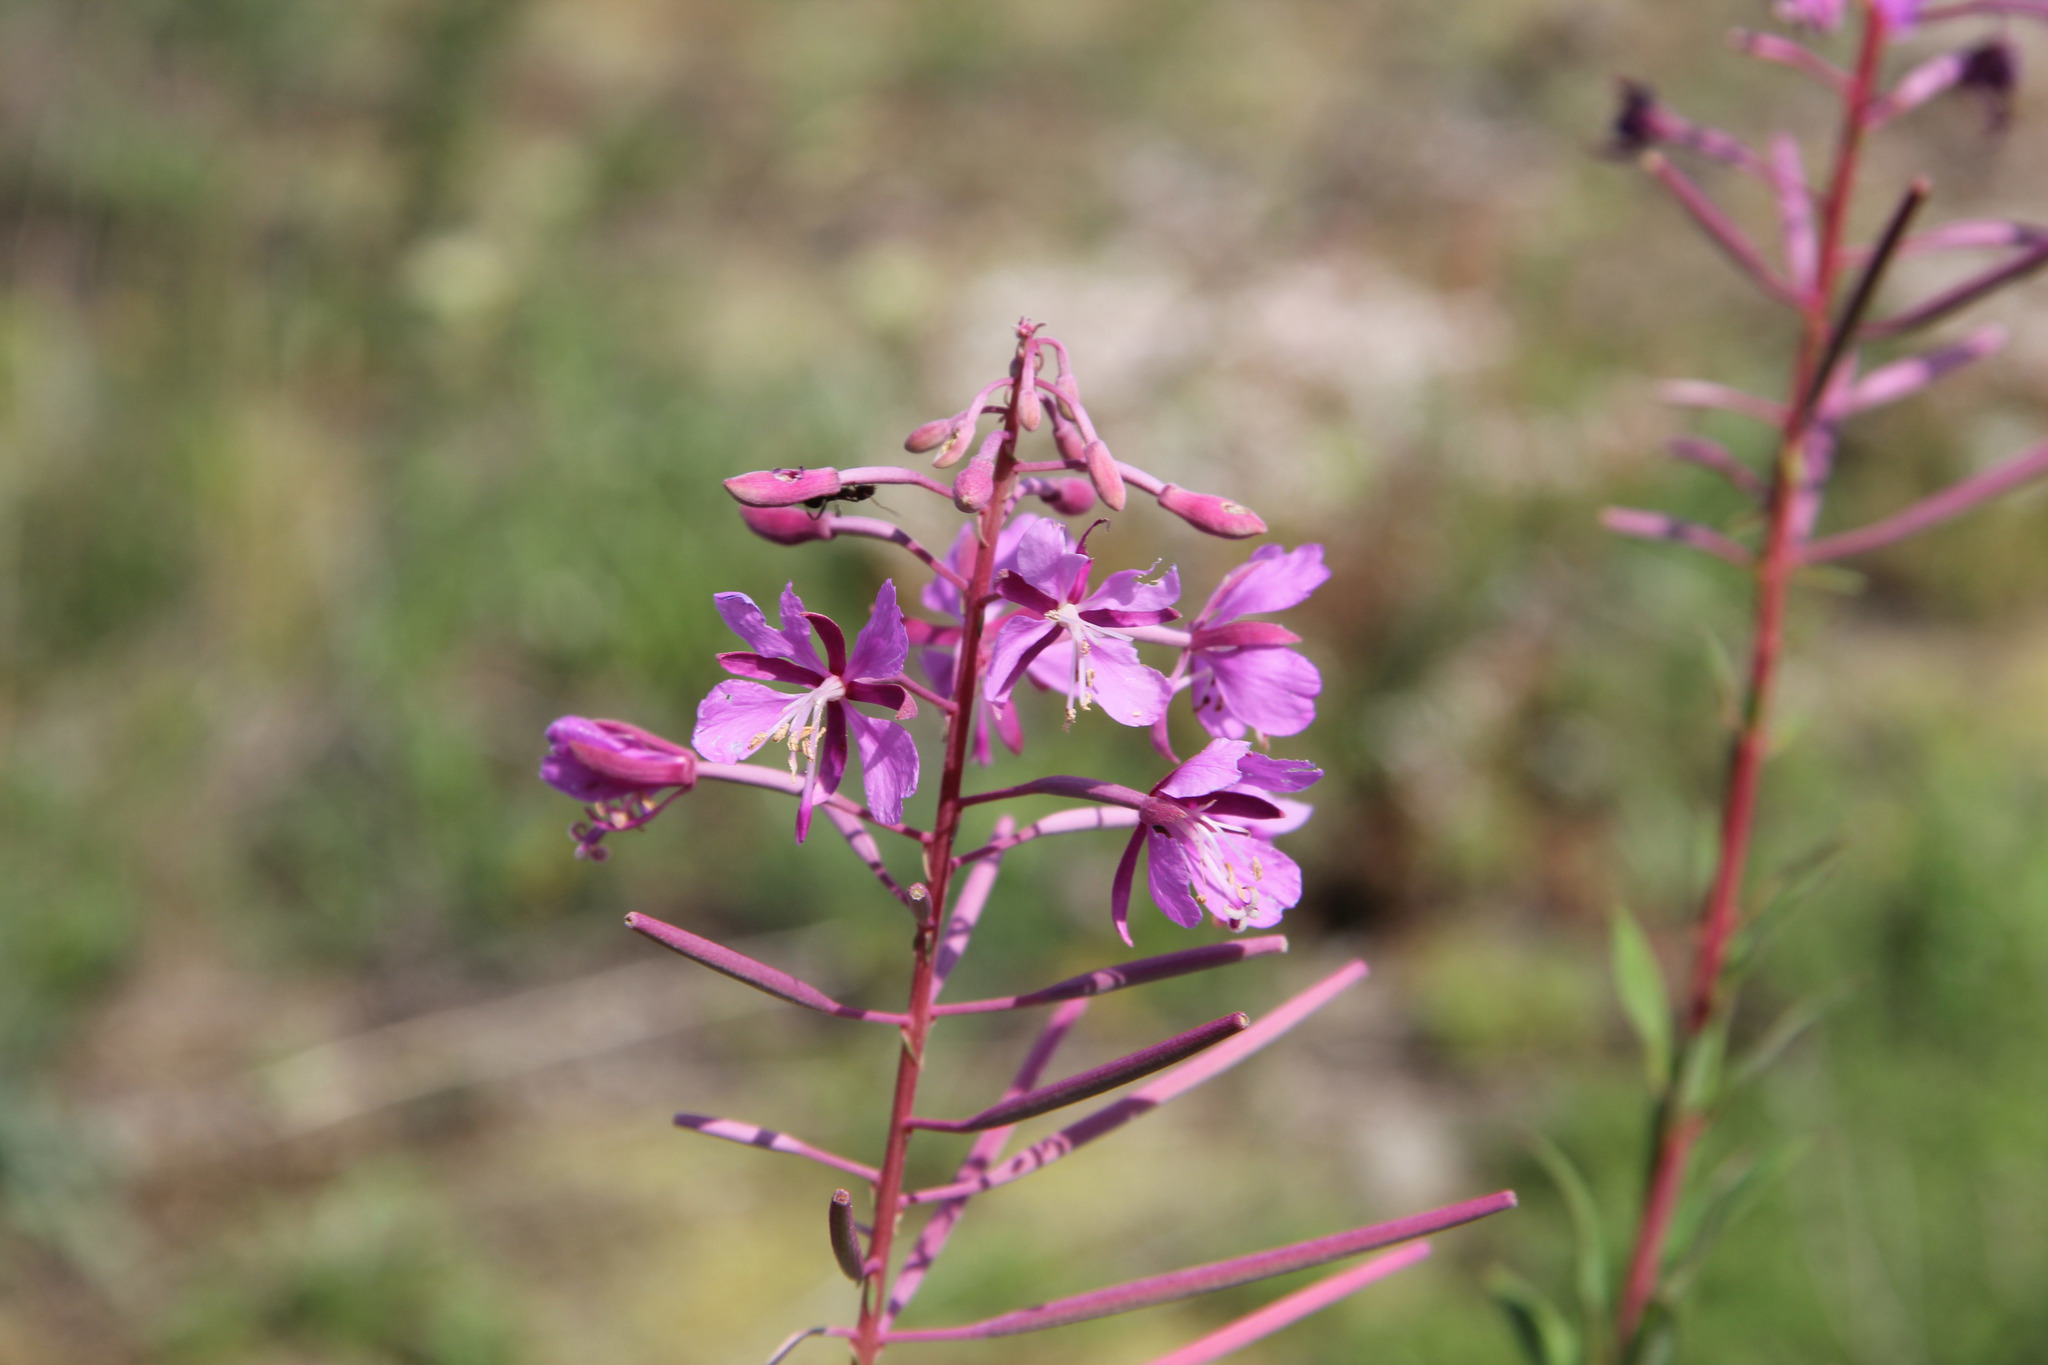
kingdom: Plantae
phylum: Tracheophyta
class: Magnoliopsida
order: Myrtales
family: Onagraceae
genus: Chamaenerion
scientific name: Chamaenerion angustifolium
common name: Fireweed
